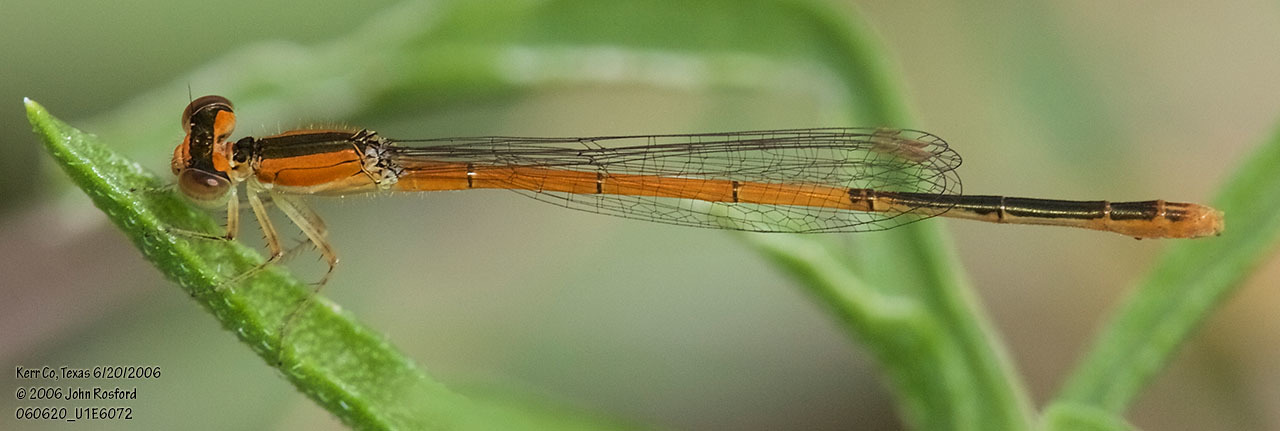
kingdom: Animalia
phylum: Arthropoda
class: Insecta
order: Odonata
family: Coenagrionidae
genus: Ischnura
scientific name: Ischnura hastata
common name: Citrine forktail
